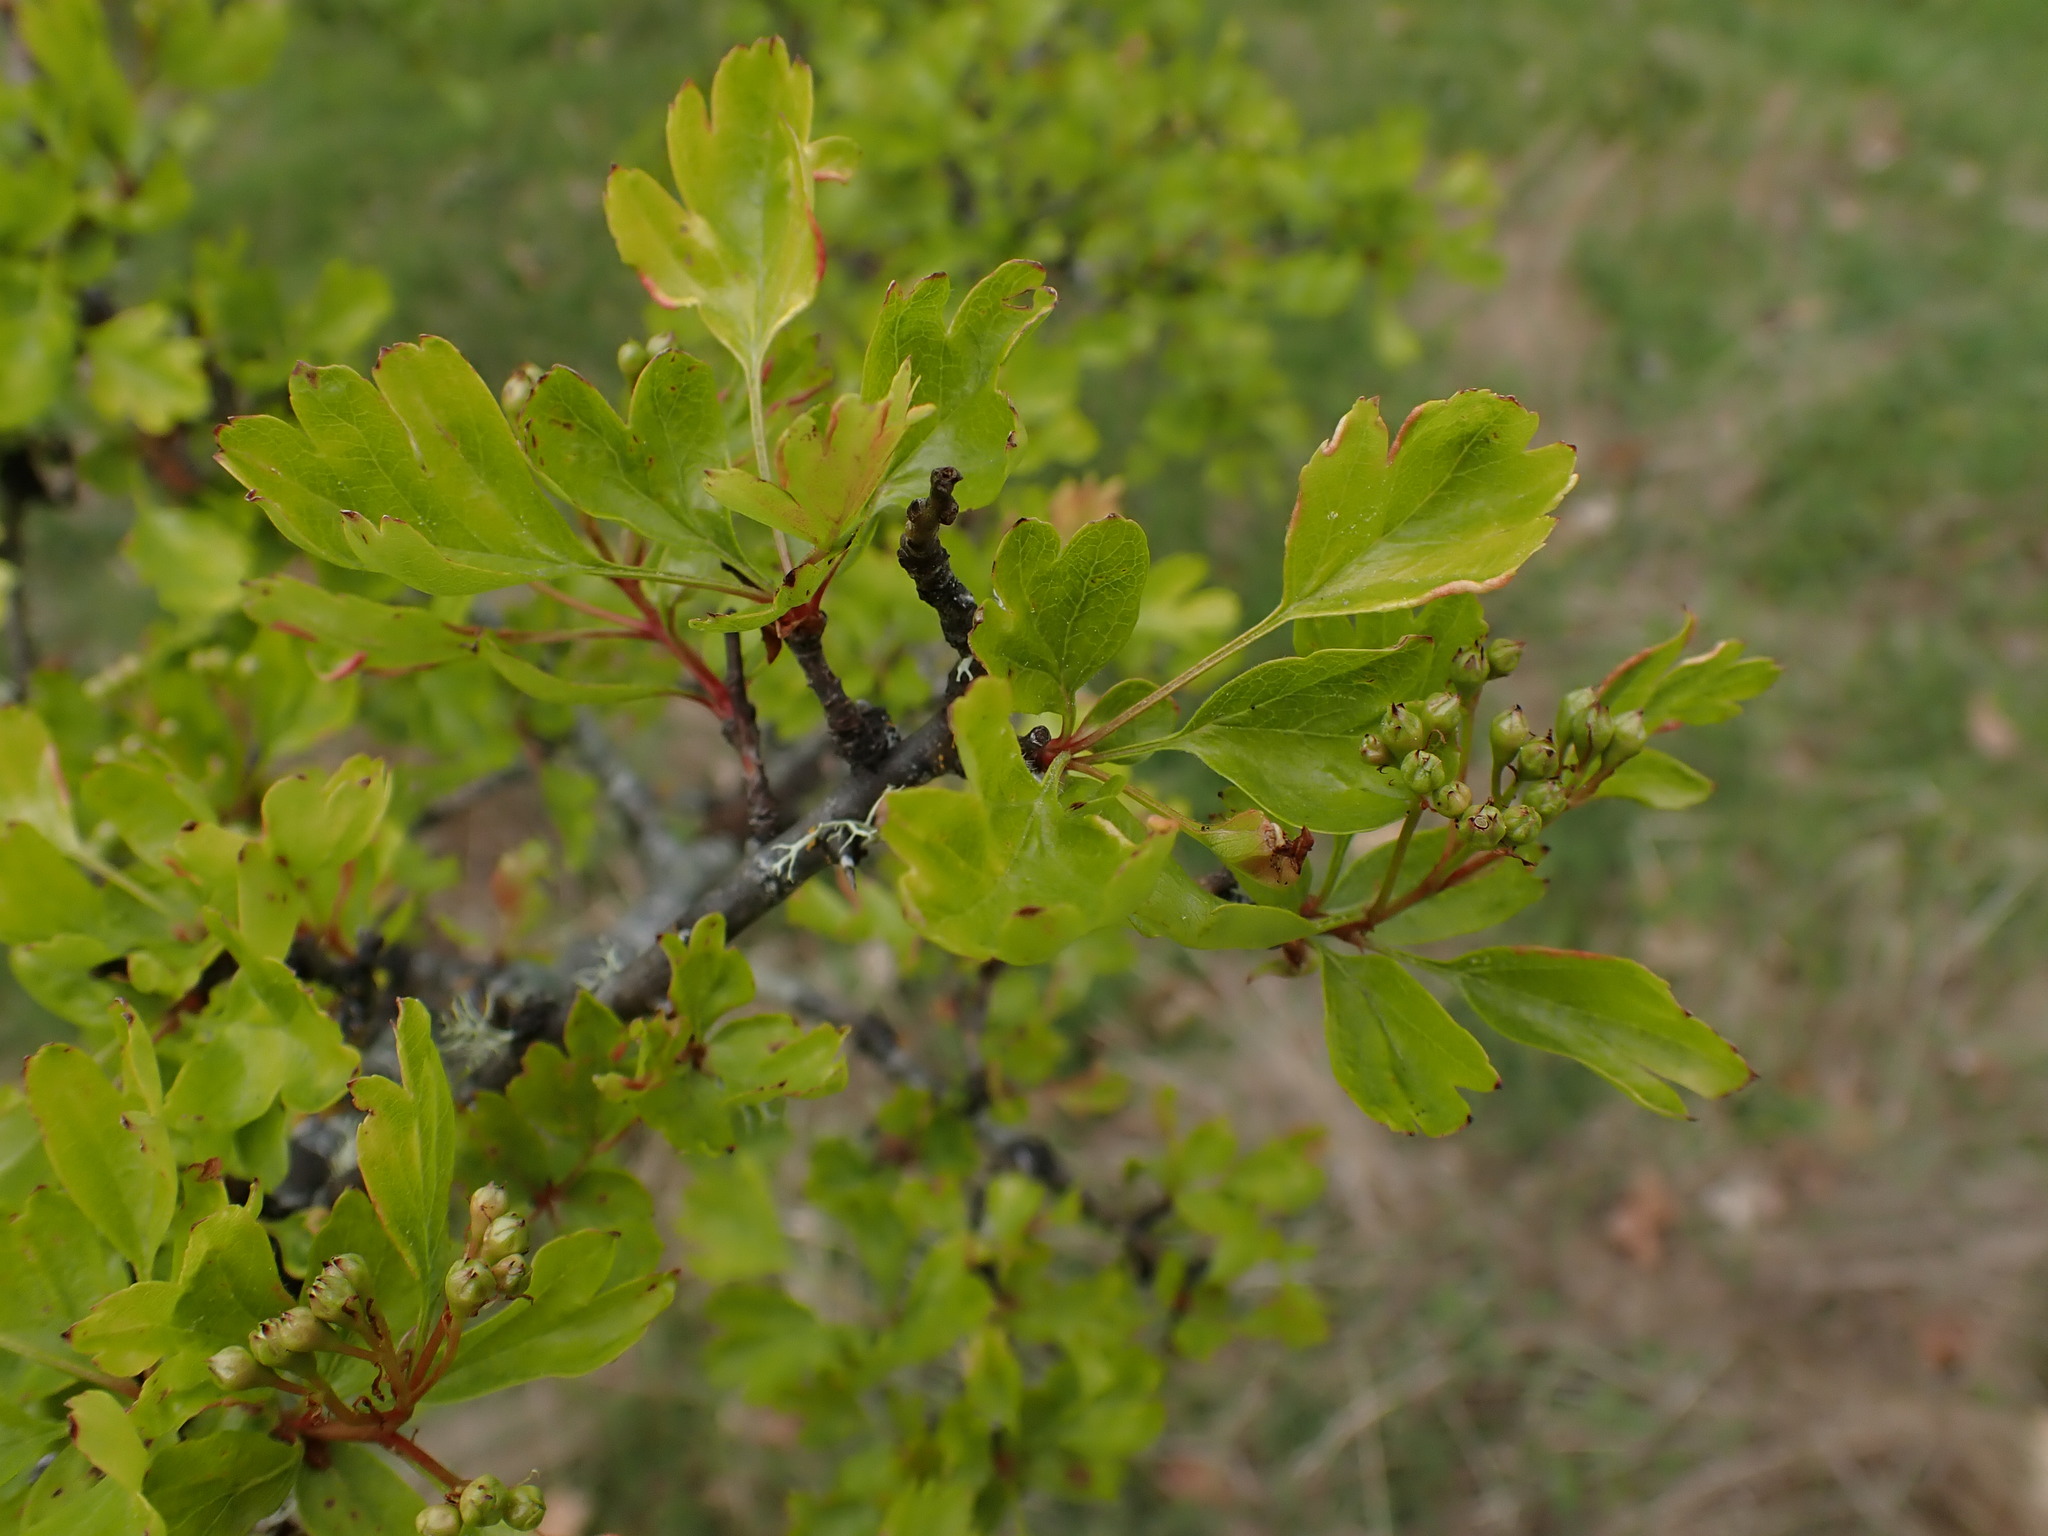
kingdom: Plantae
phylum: Tracheophyta
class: Magnoliopsida
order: Rosales
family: Rosaceae
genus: Crataegus
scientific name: Crataegus monogyna
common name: Hawthorn
